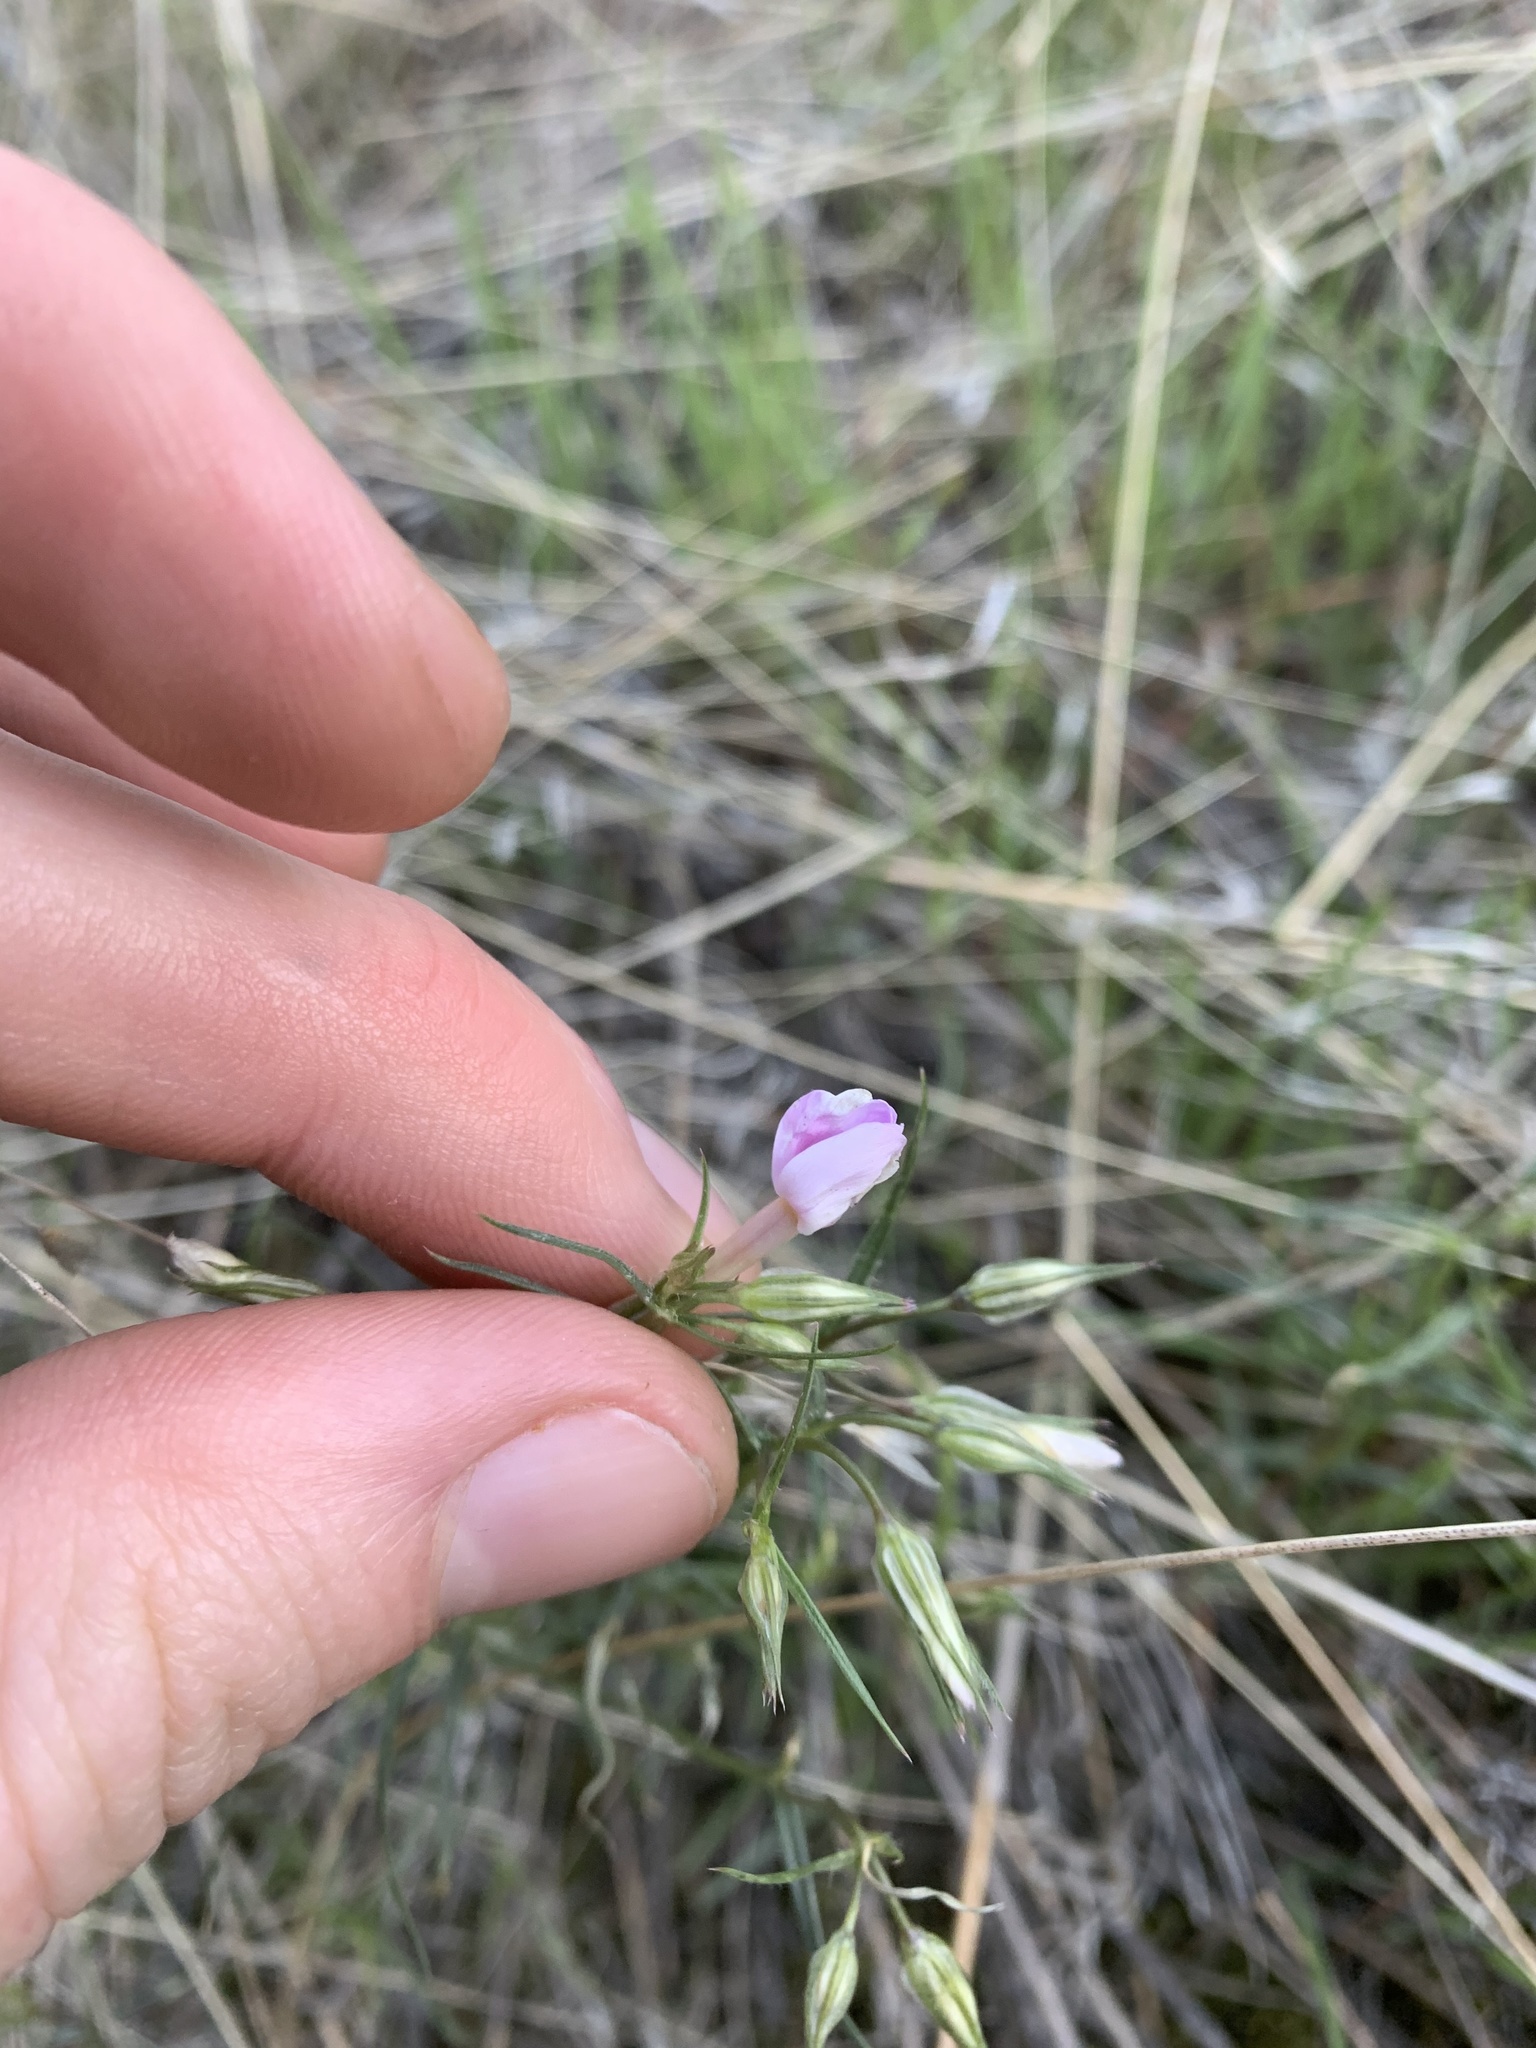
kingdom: Plantae
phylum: Tracheophyta
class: Magnoliopsida
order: Ericales
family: Polemoniaceae
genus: Phlox
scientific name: Phlox longifolia
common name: Longleaf phlox
